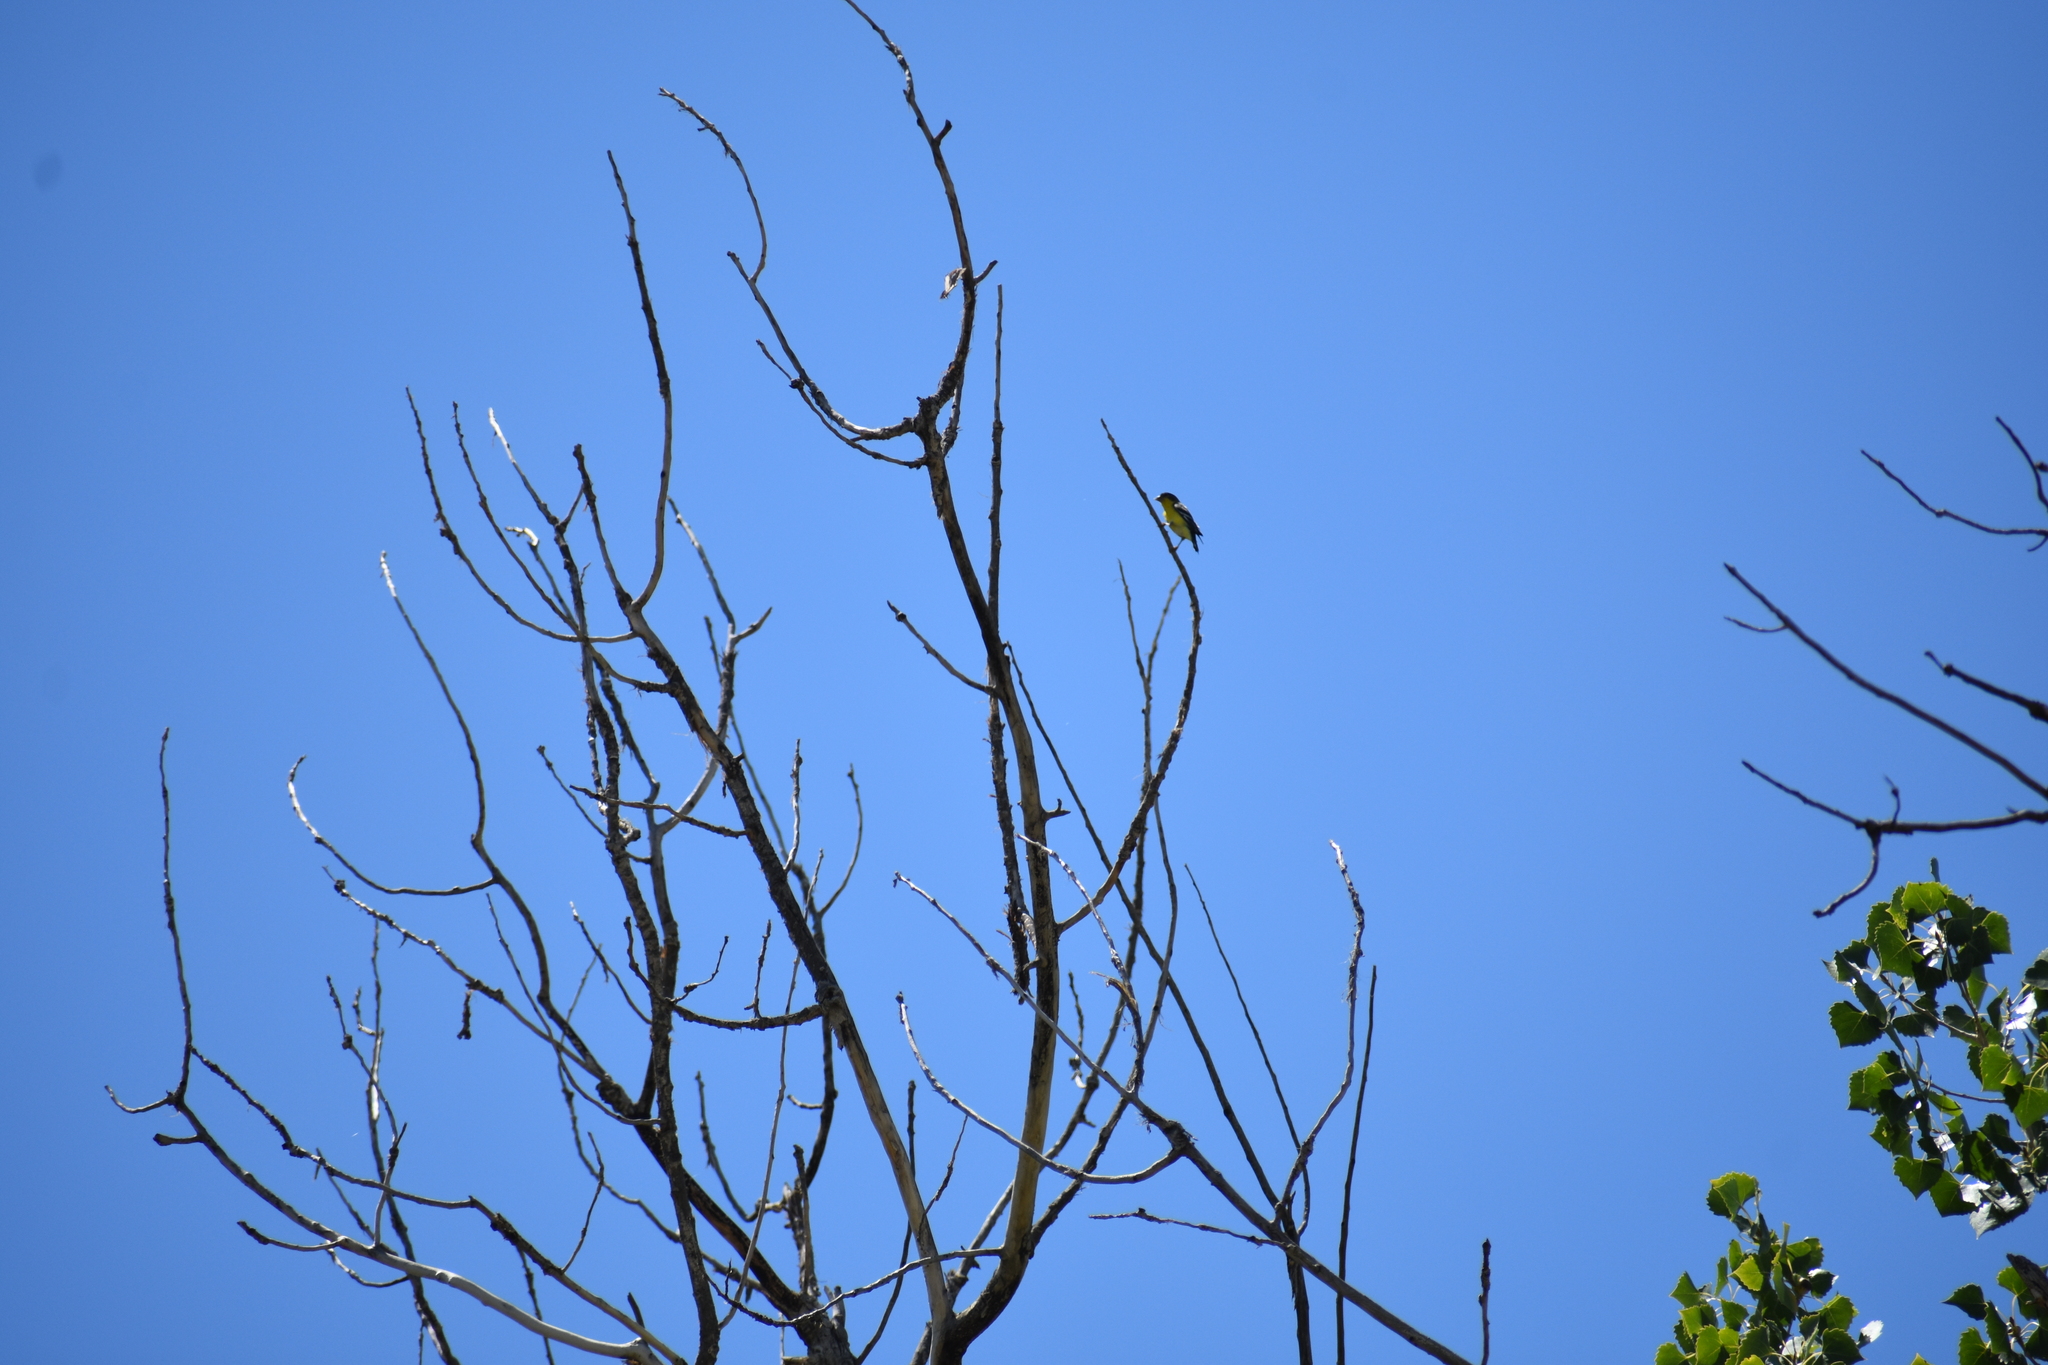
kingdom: Animalia
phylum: Chordata
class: Aves
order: Passeriformes
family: Fringillidae
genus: Spinus
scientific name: Spinus psaltria
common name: Lesser goldfinch
